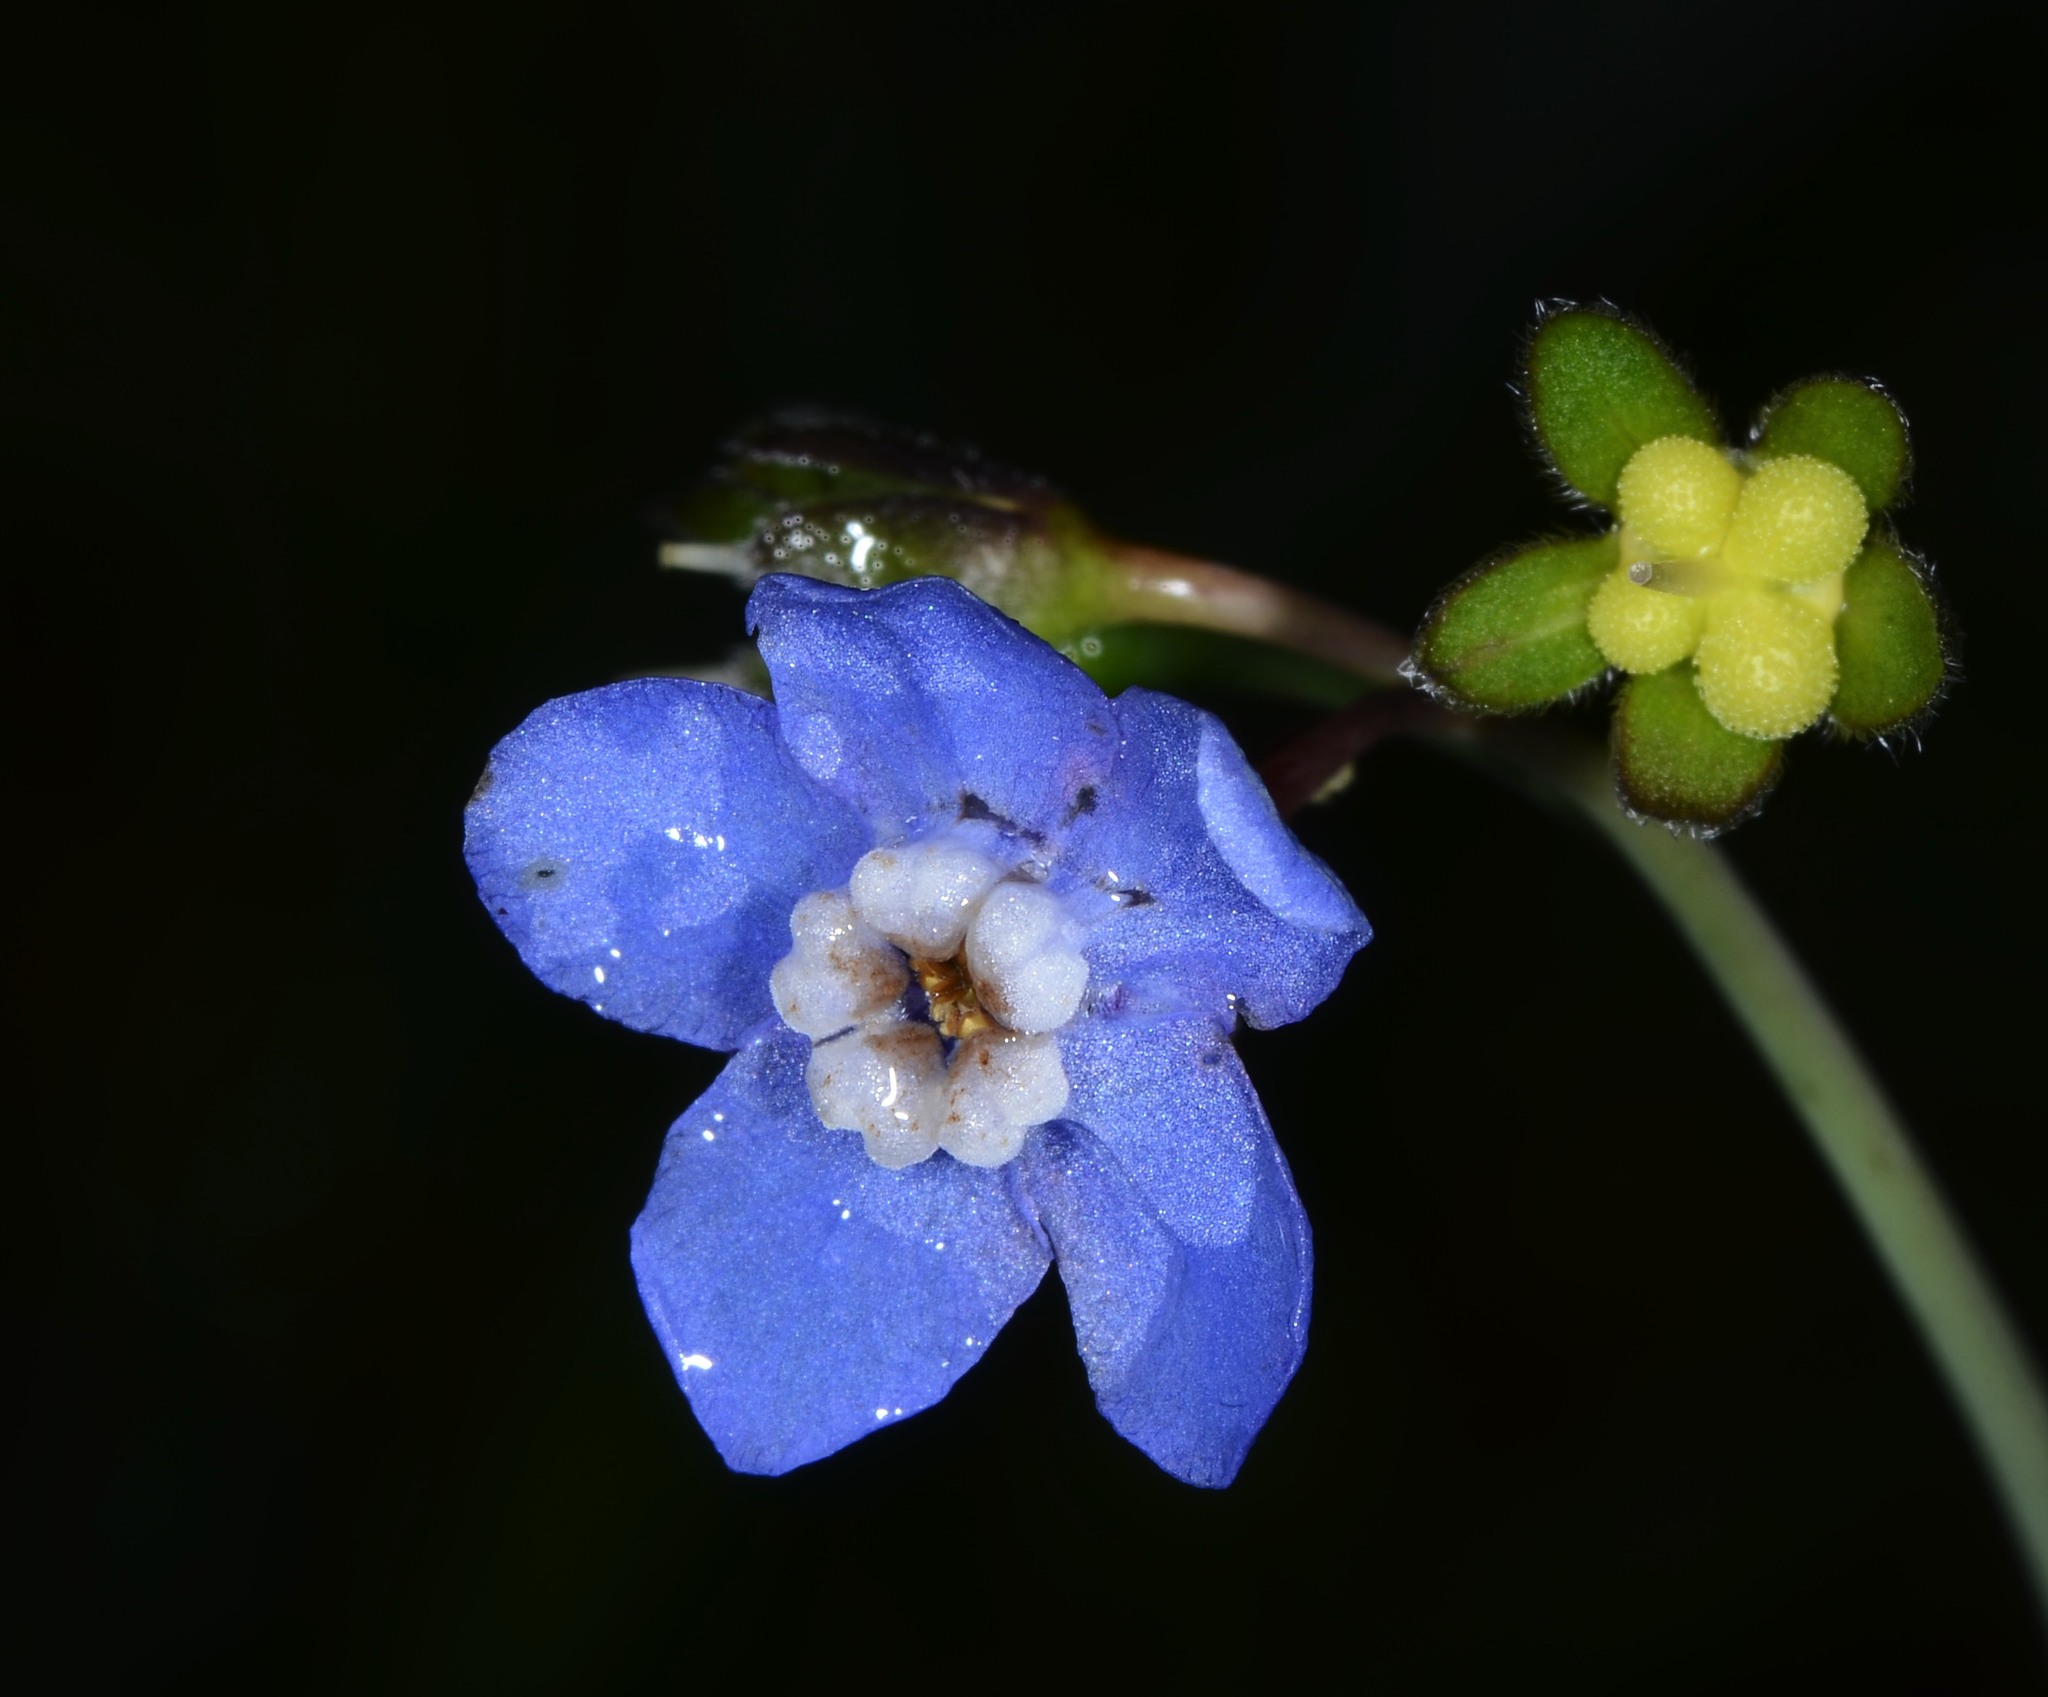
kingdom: Plantae
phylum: Tracheophyta
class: Magnoliopsida
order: Boraginales
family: Boraginaceae
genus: Adelinia
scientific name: Adelinia grande
